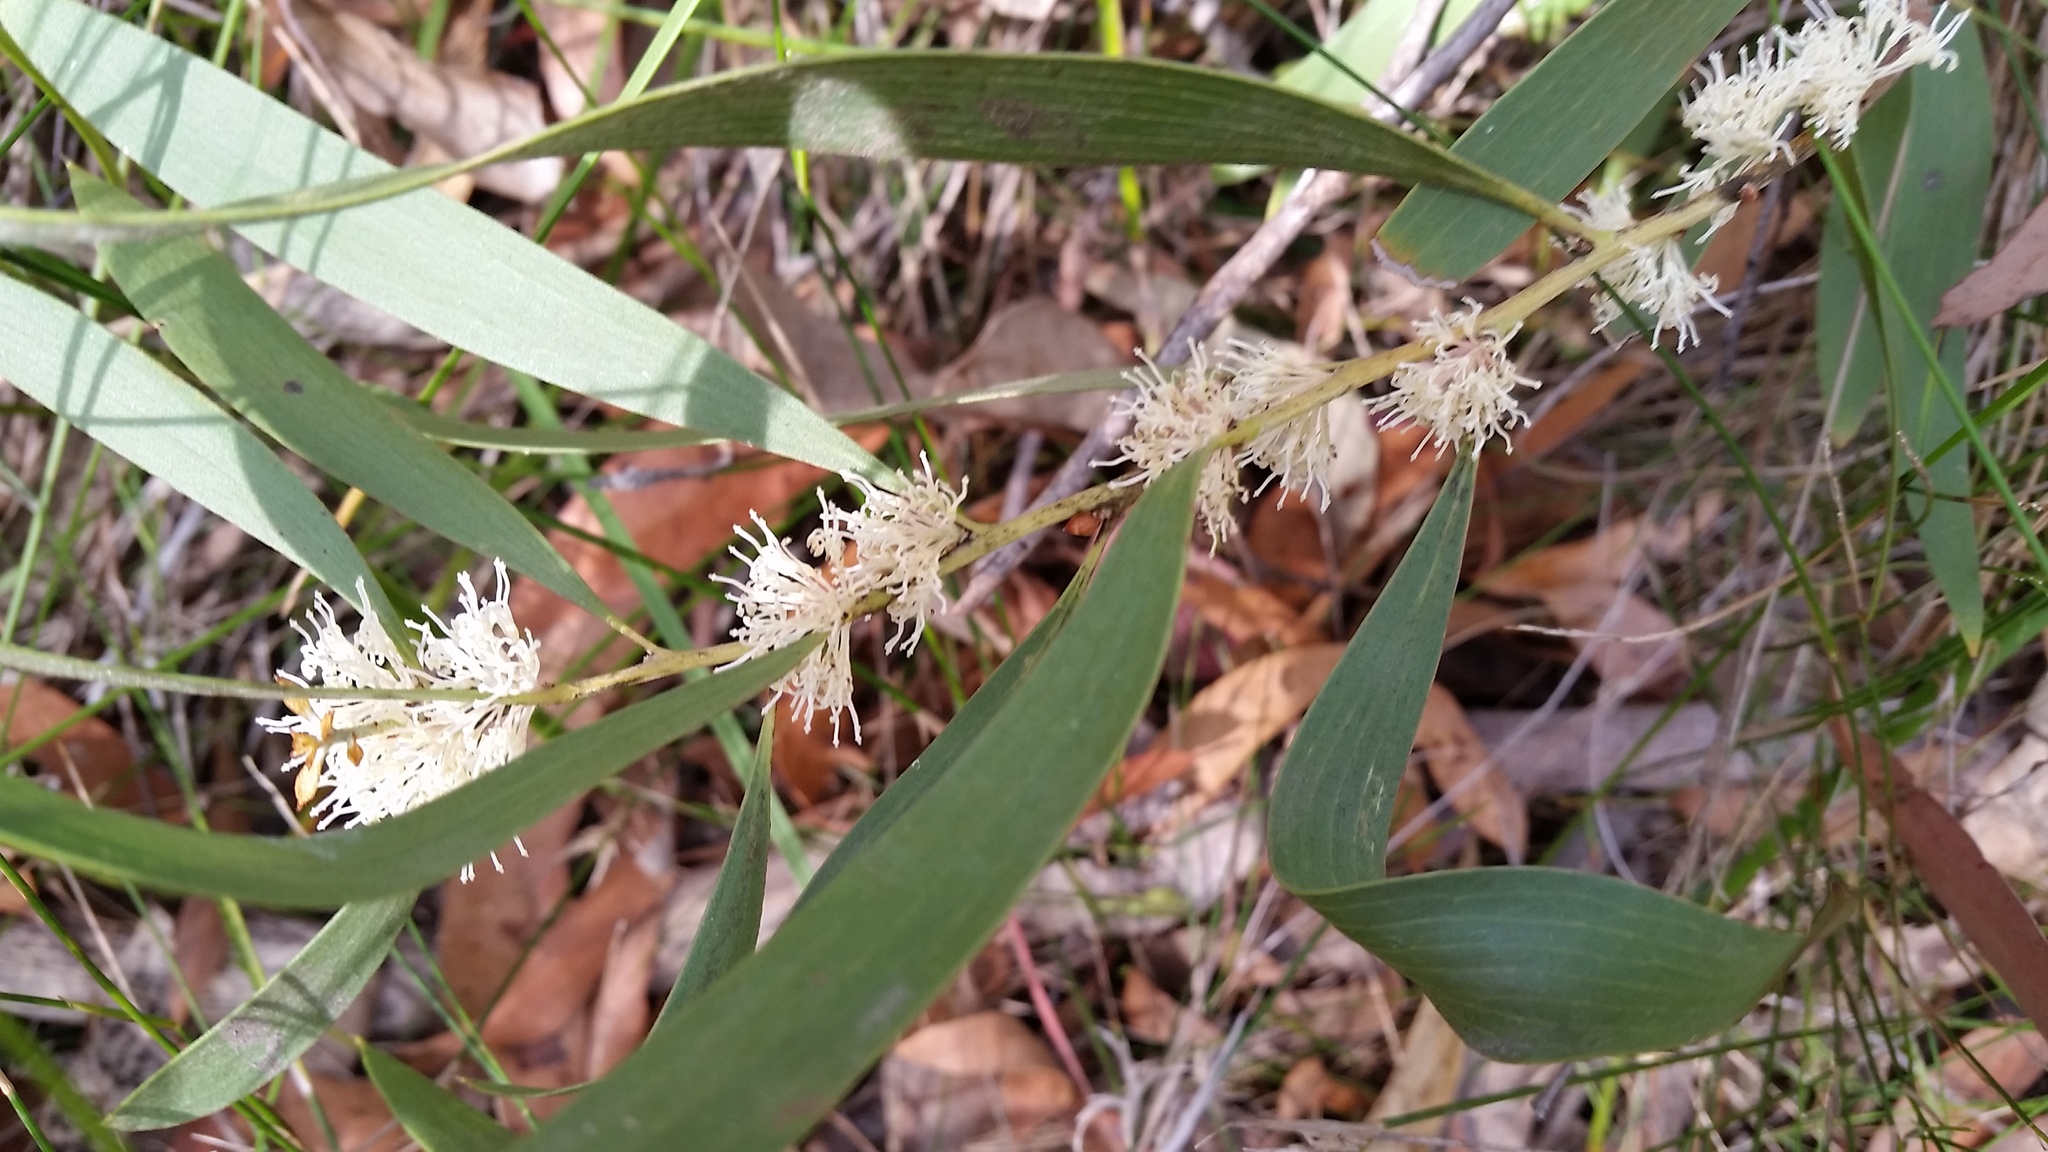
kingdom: Plantae
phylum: Tracheophyta
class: Magnoliopsida
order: Proteales
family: Proteaceae
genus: Hakea
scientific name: Hakea salicifolia
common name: Willow hakea
